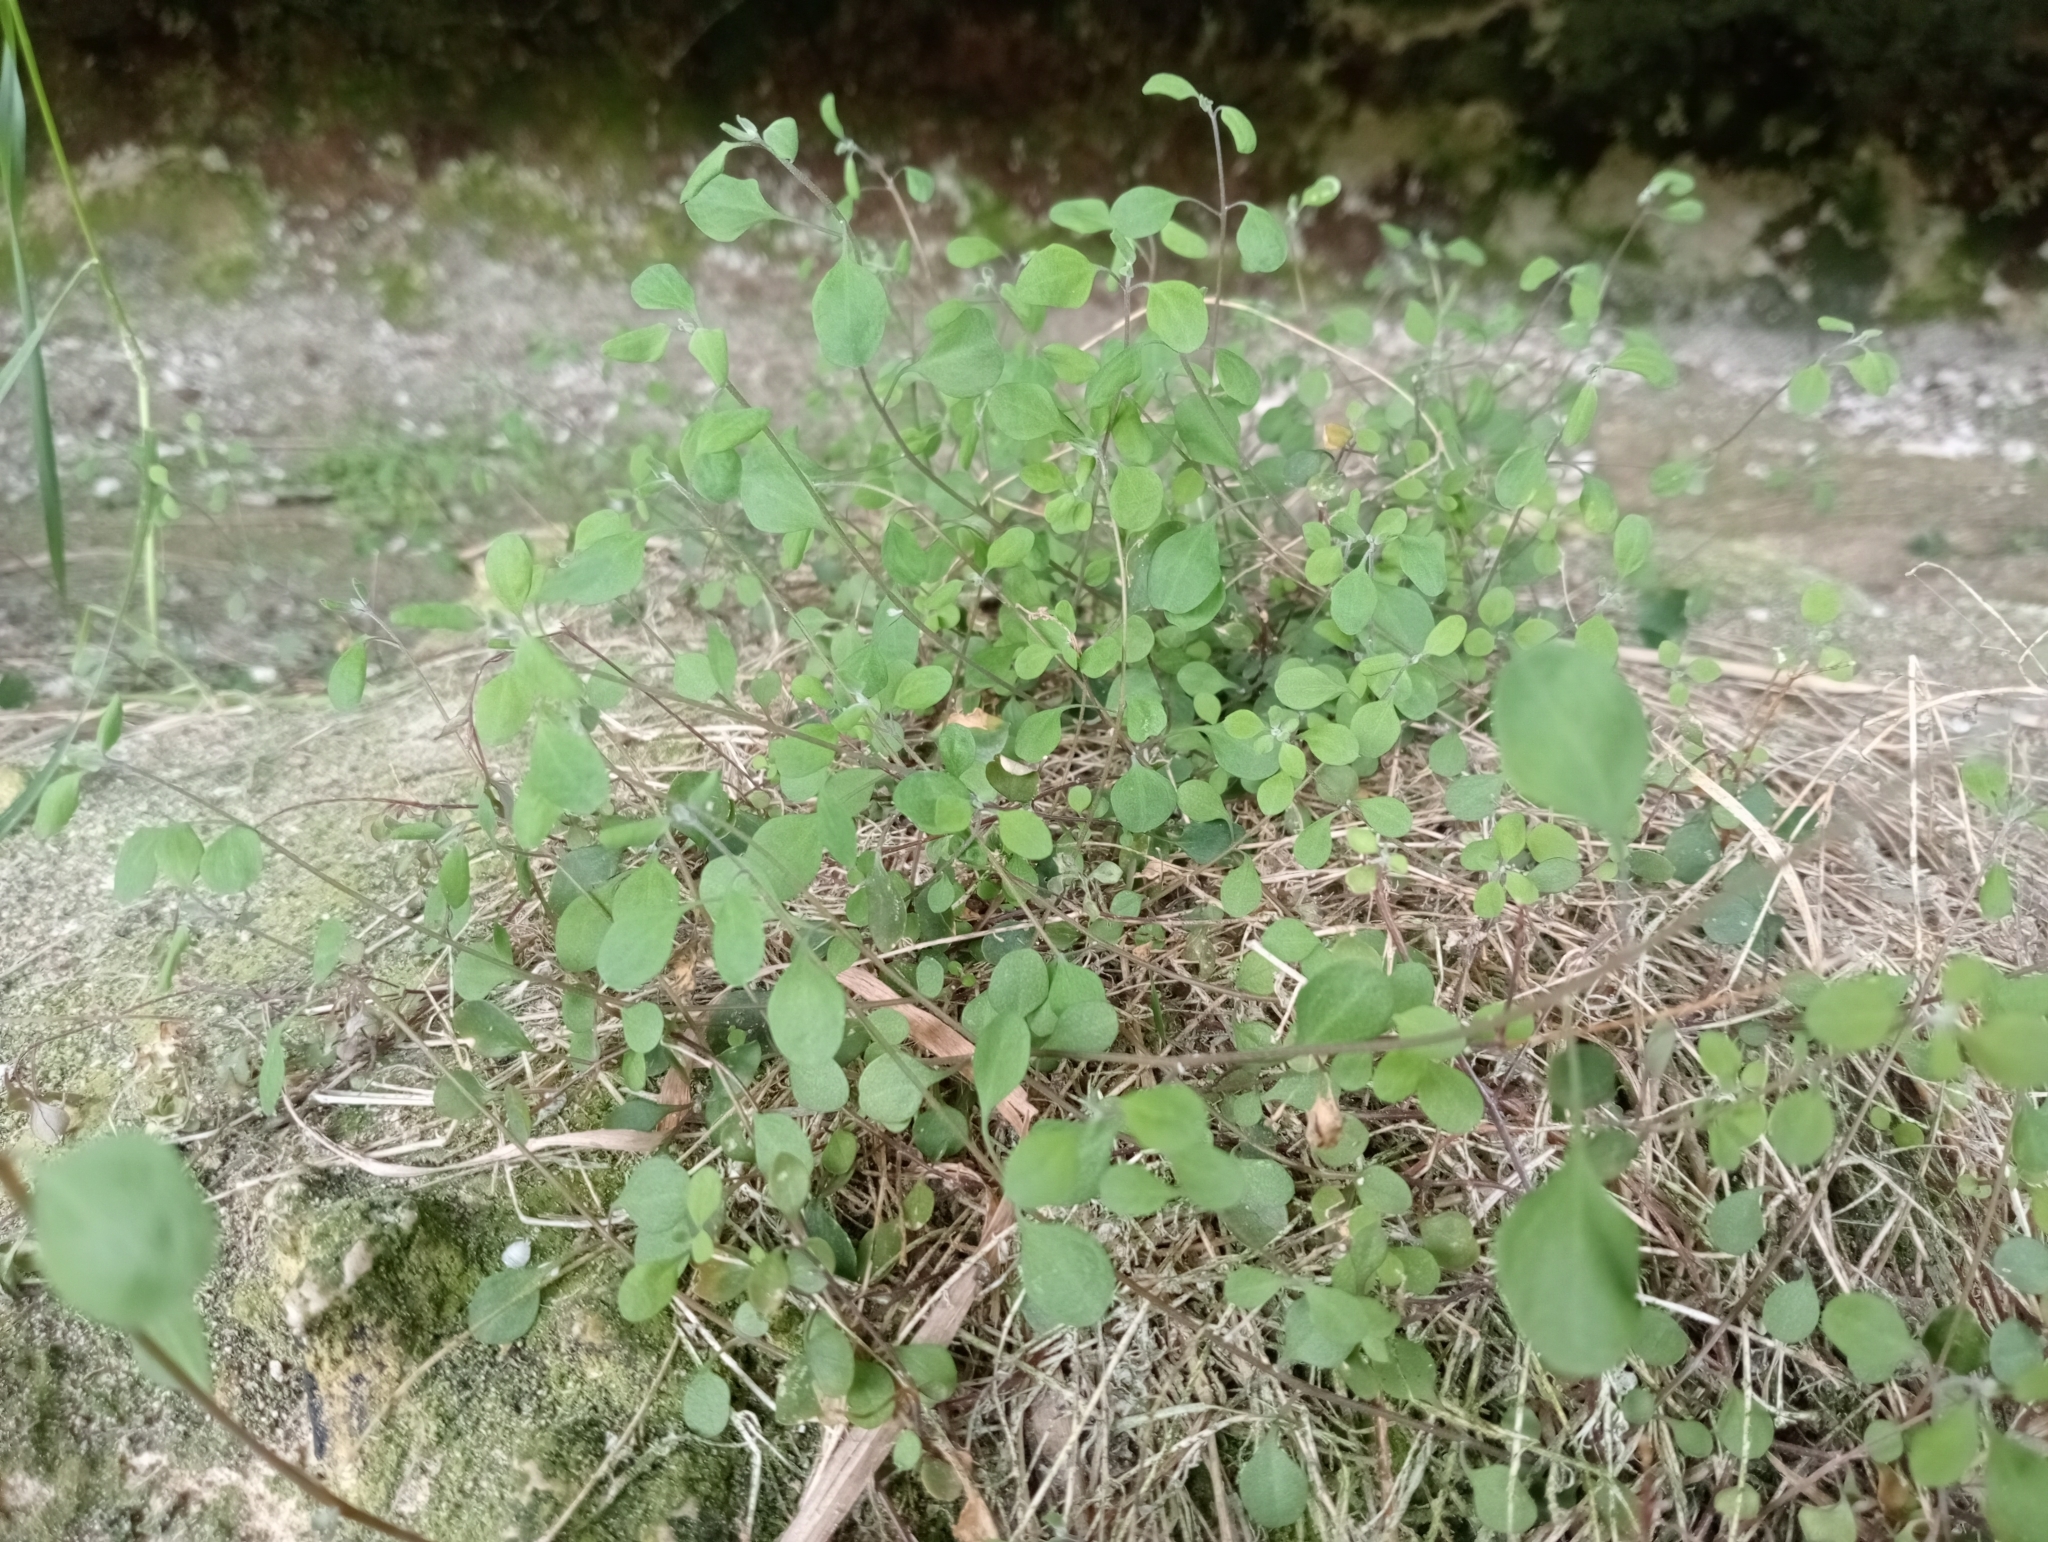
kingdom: Plantae
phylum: Tracheophyta
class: Magnoliopsida
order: Caryophyllales
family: Amaranthaceae
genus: Chenopodium
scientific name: Chenopodium allanii
